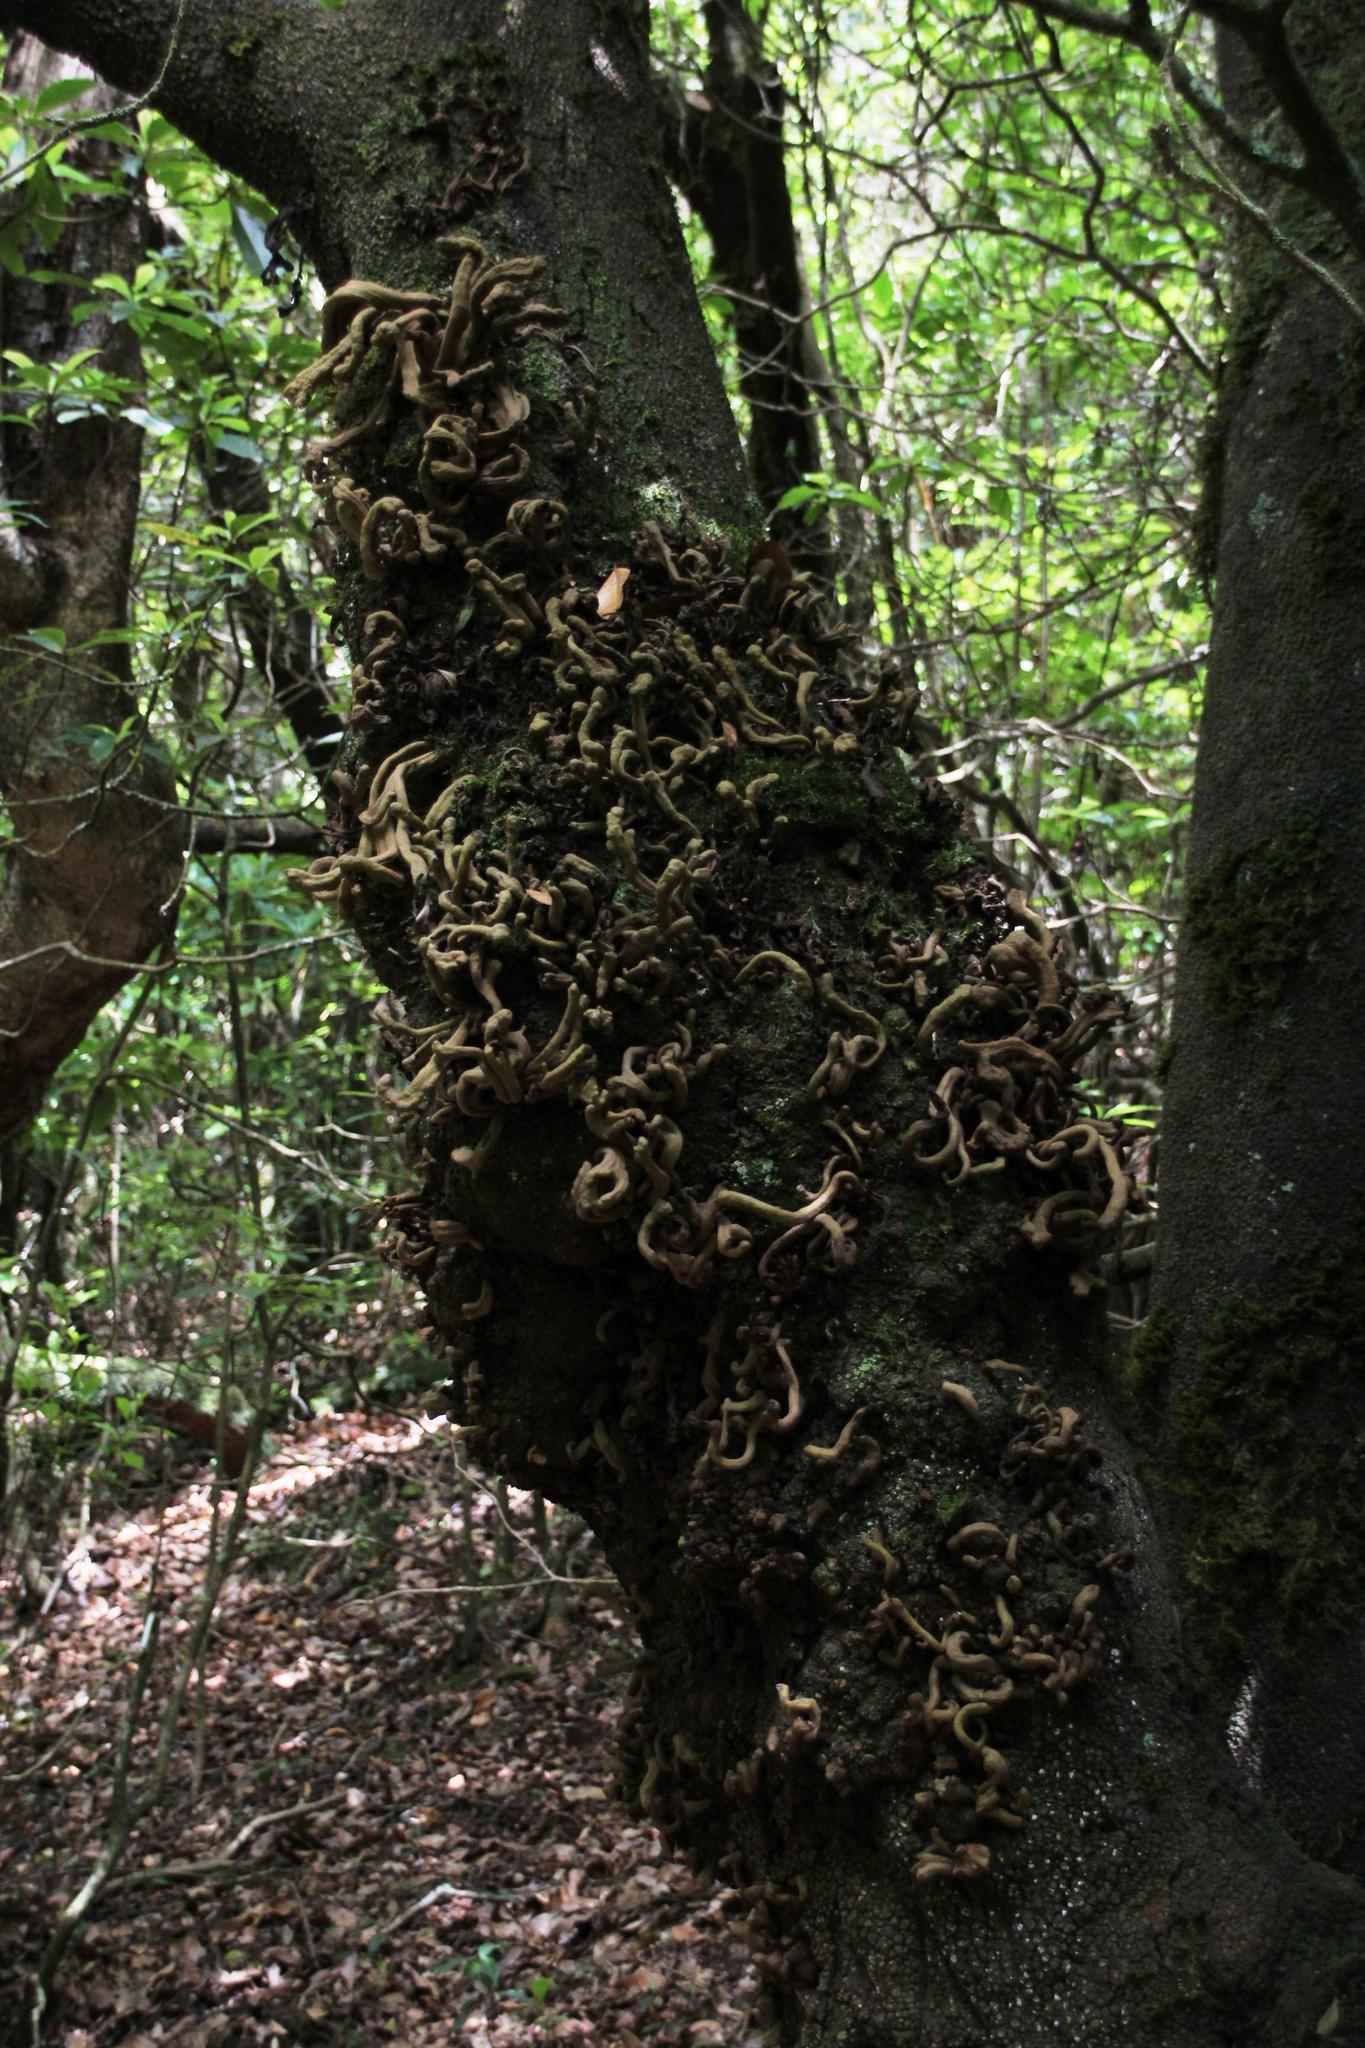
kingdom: Fungi
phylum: Basidiomycota
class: Exobasidiomycetes
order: Exobasidiales
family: Laurobasidiaceae
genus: Laurobasidium
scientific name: Laurobasidium lauri
